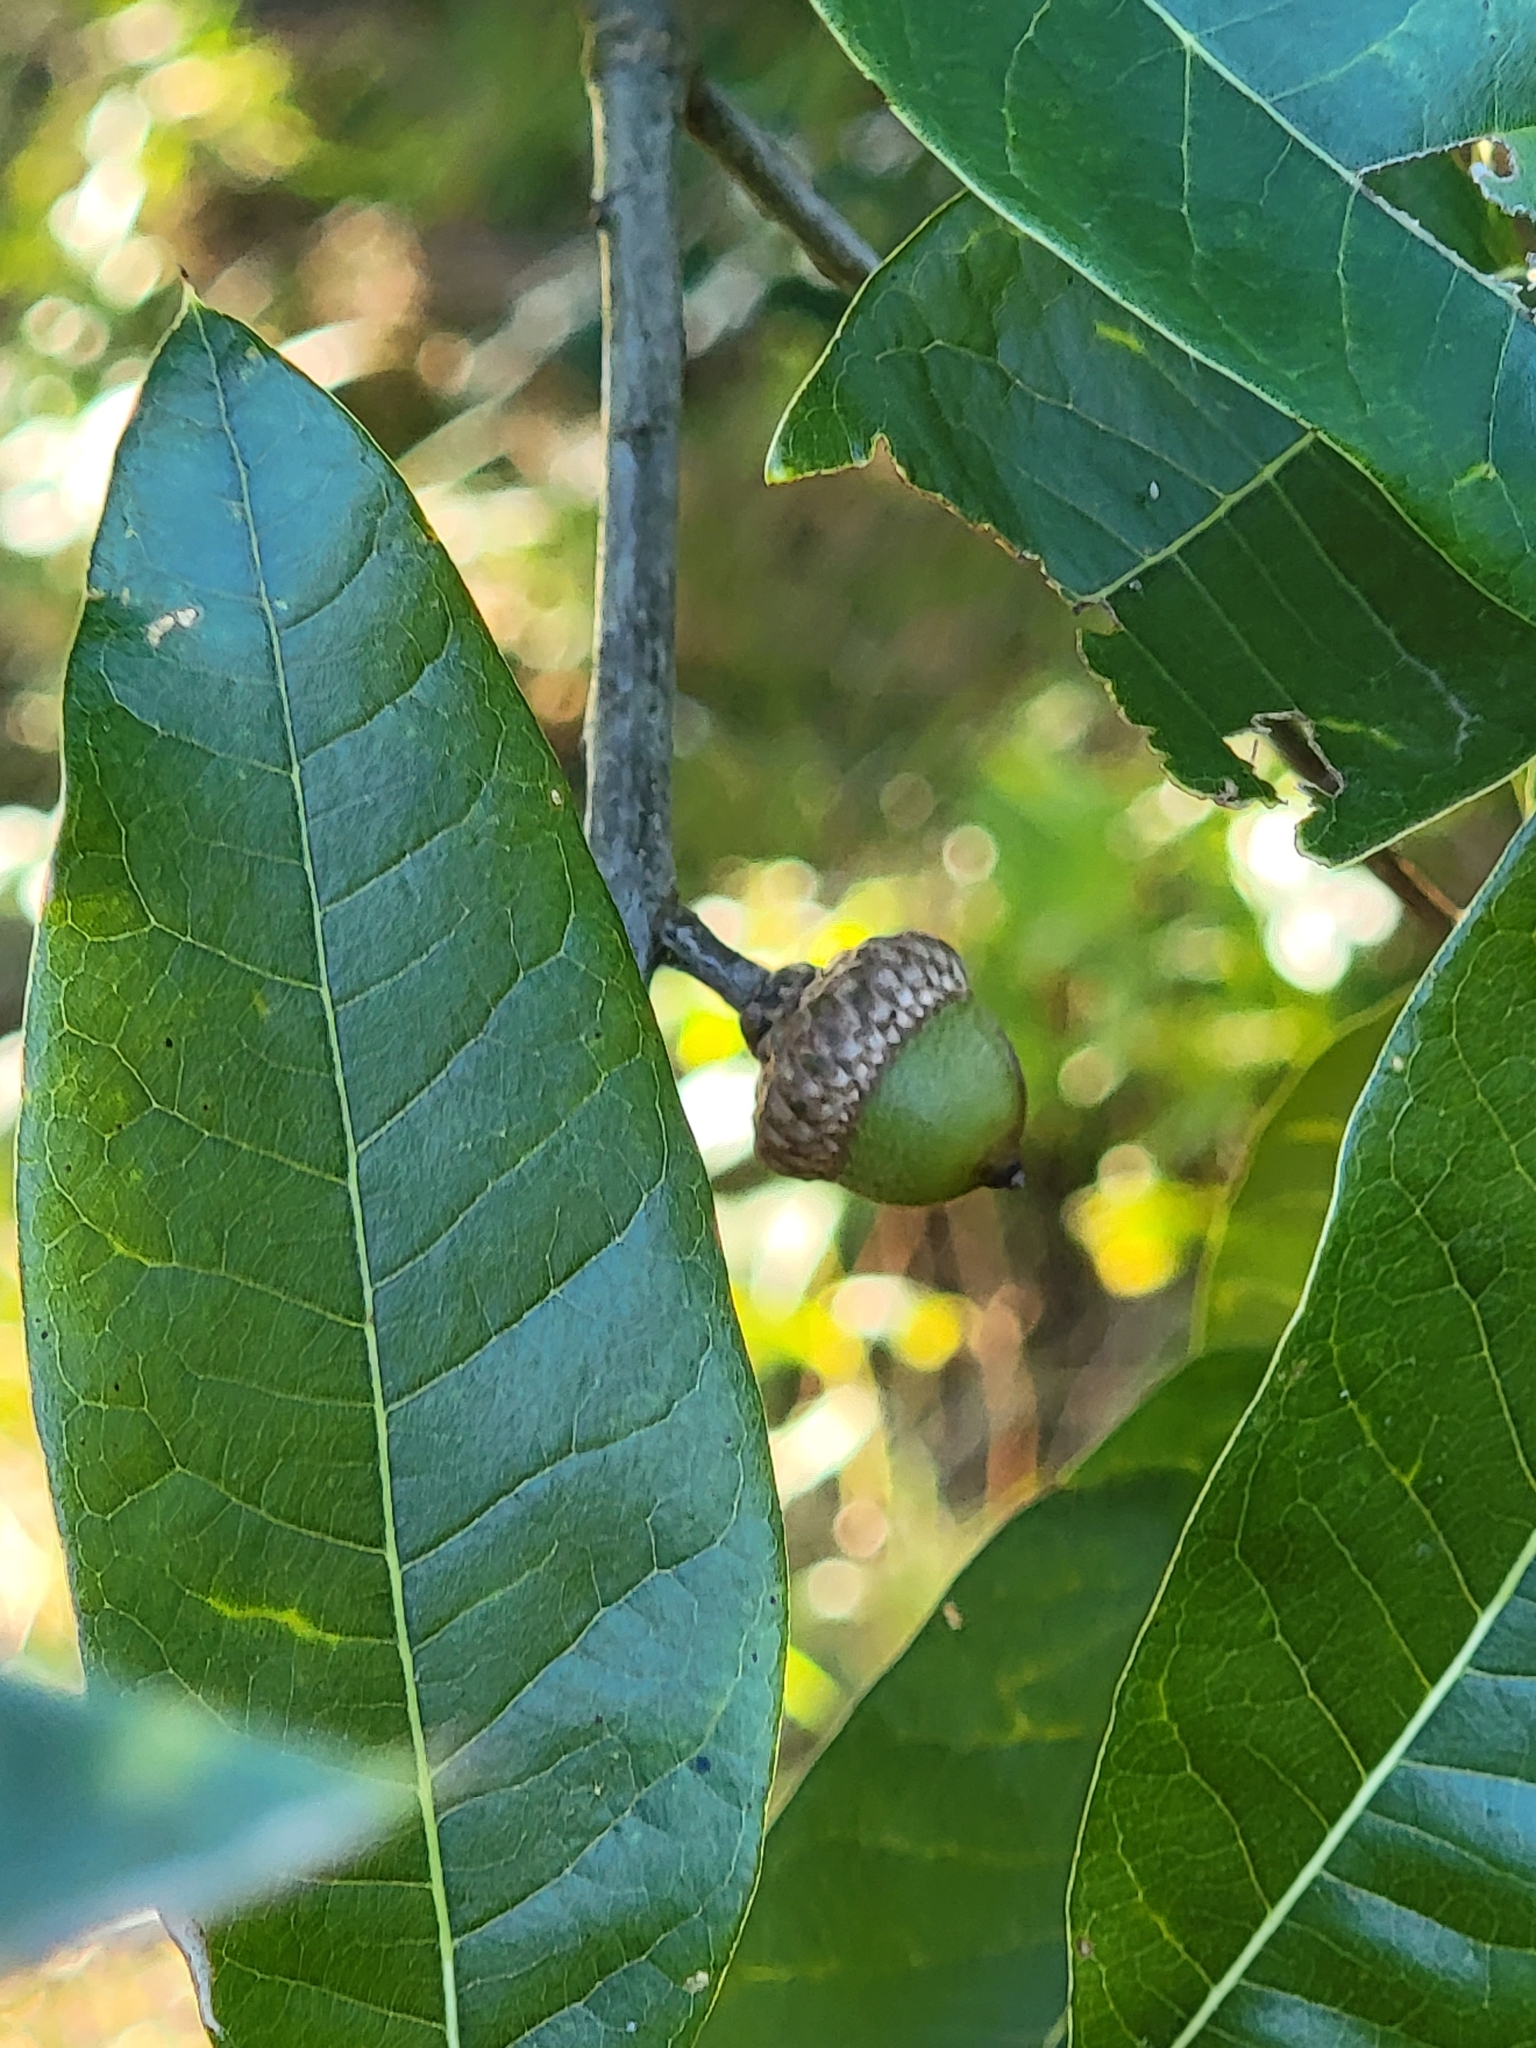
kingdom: Plantae
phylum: Tracheophyta
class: Magnoliopsida
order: Fagales
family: Fagaceae
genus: Quercus
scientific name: Quercus imbricaria
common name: Shingle oak
